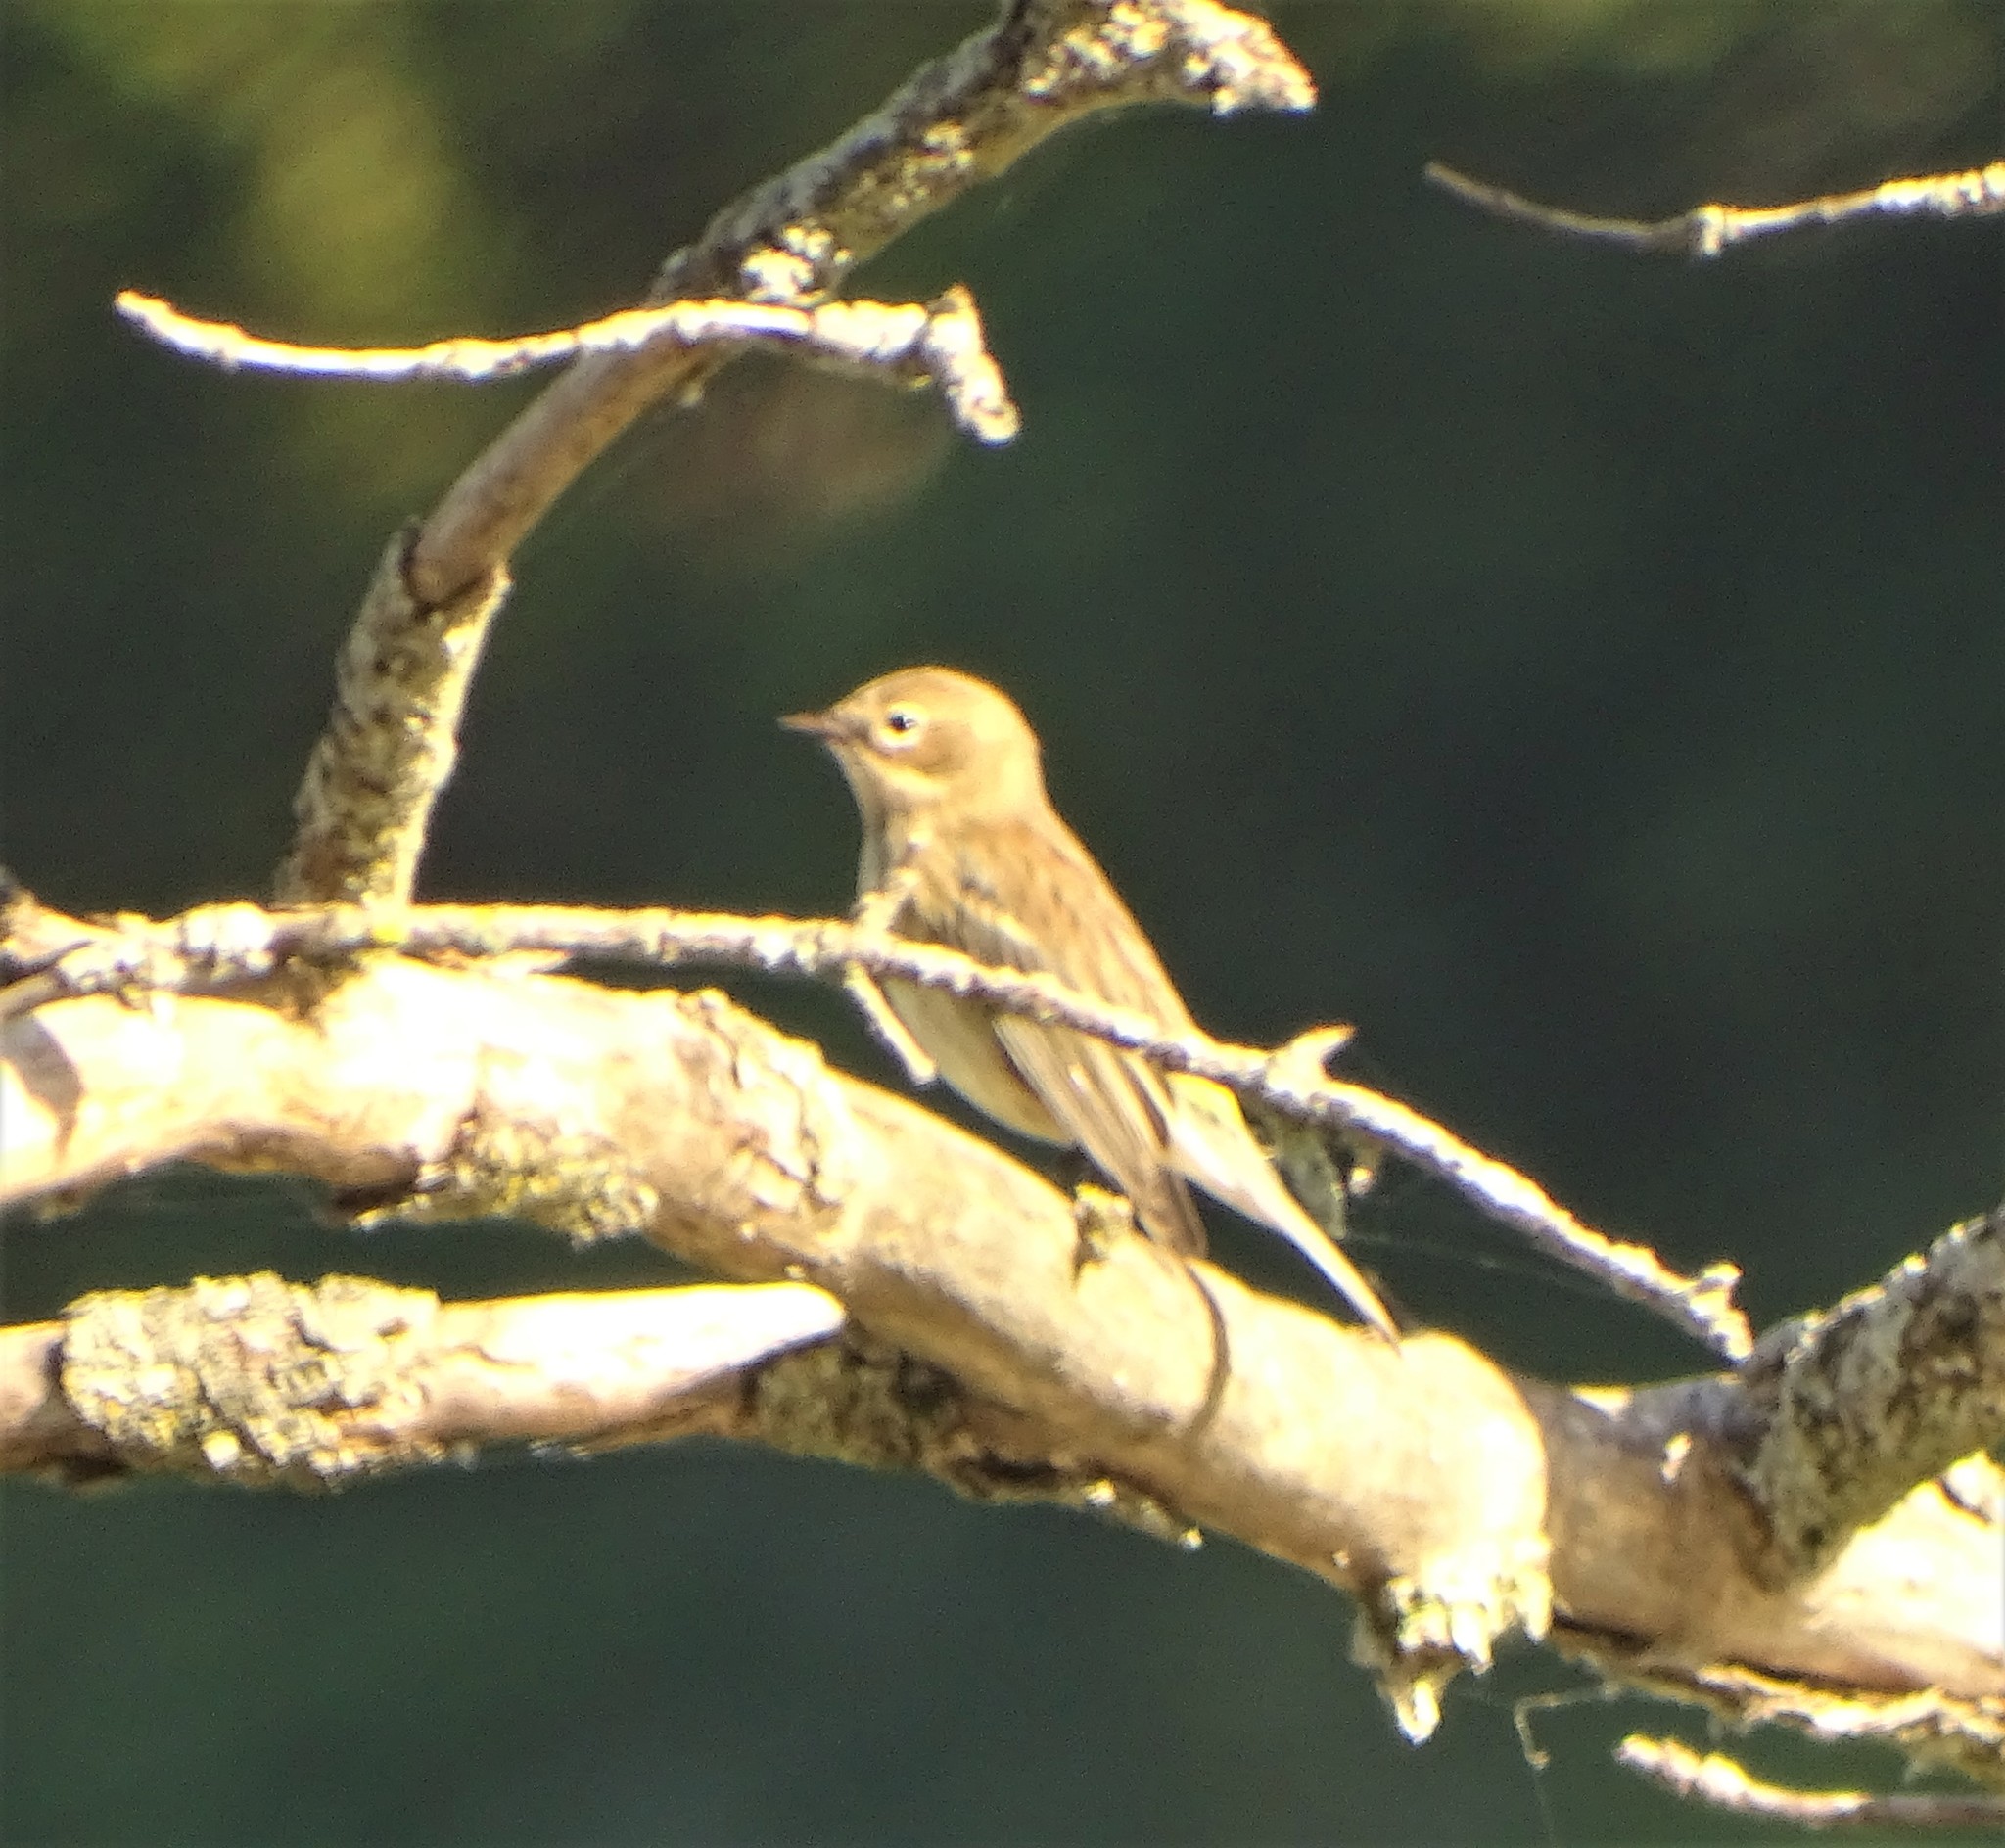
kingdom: Animalia
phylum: Chordata
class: Aves
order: Passeriformes
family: Parulidae
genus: Setophaga
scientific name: Setophaga coronata
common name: Myrtle warbler
